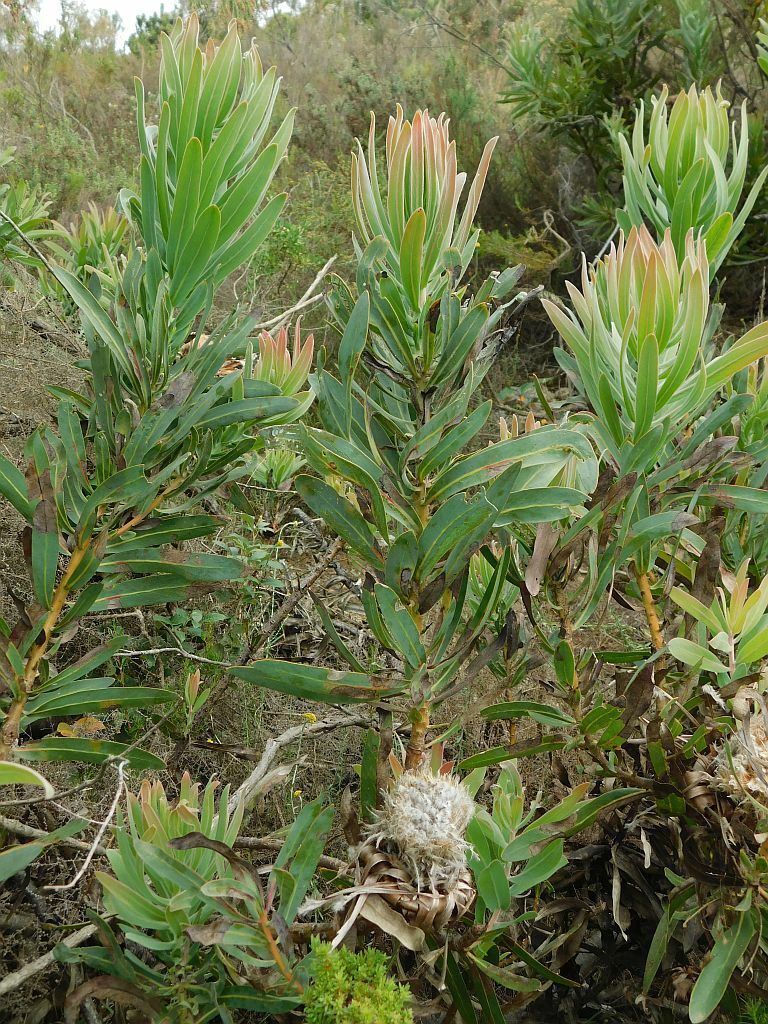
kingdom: Plantae
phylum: Tracheophyta
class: Magnoliopsida
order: Proteales
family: Proteaceae
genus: Protea
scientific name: Protea neriifolia
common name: Blue sugarbush
